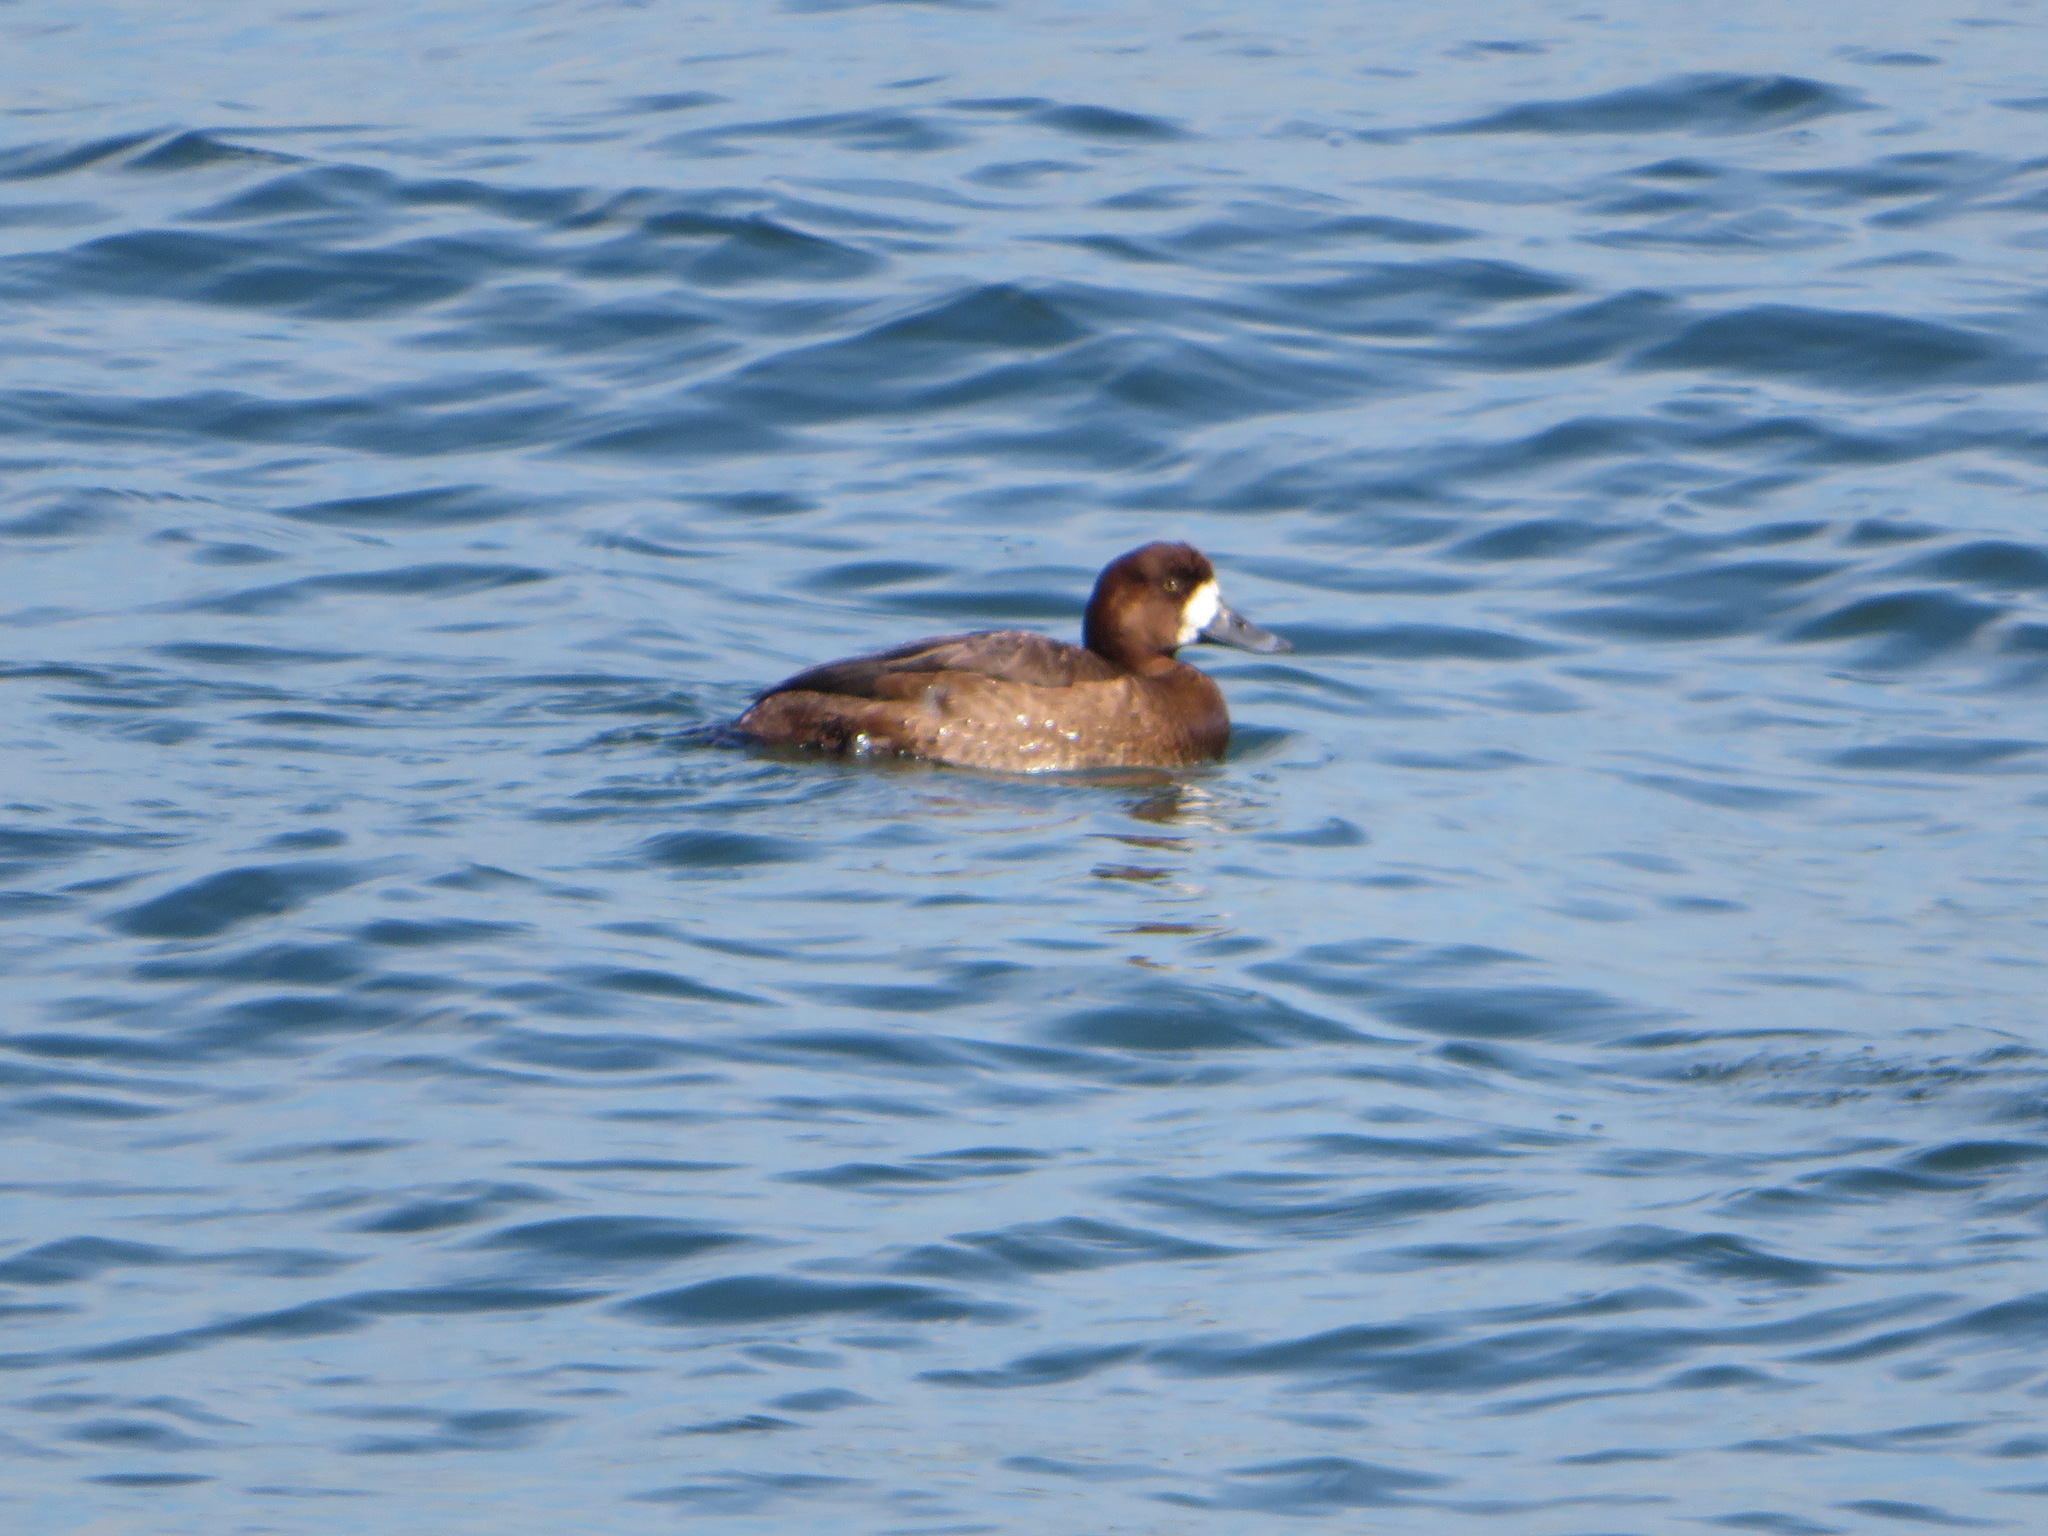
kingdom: Animalia
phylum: Chordata
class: Aves
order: Anseriformes
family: Anatidae
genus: Aythya
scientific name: Aythya marila
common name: Greater scaup
